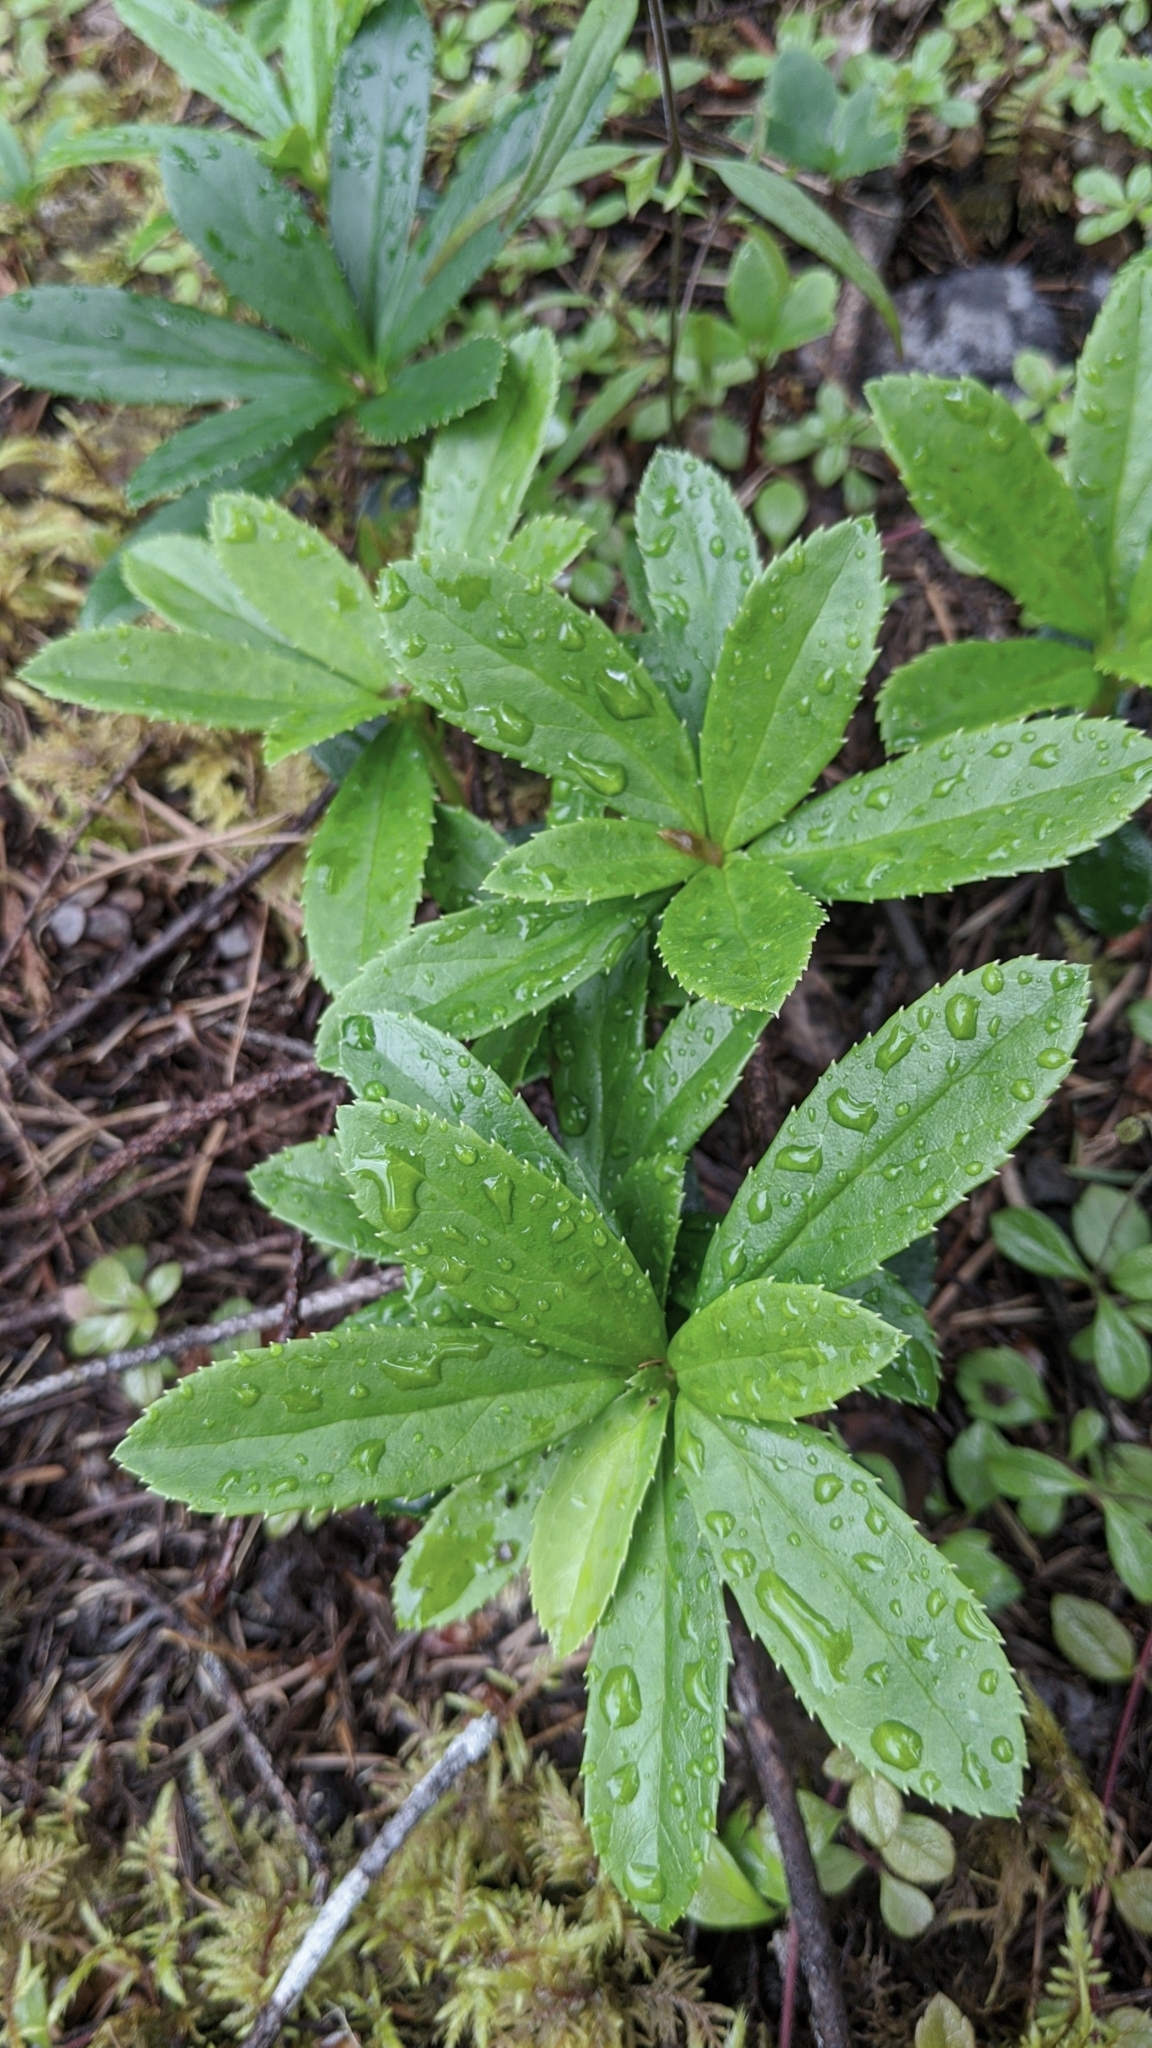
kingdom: Plantae
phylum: Tracheophyta
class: Magnoliopsida
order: Ericales
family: Ericaceae
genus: Chimaphila
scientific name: Chimaphila umbellata
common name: Pipsissewa
